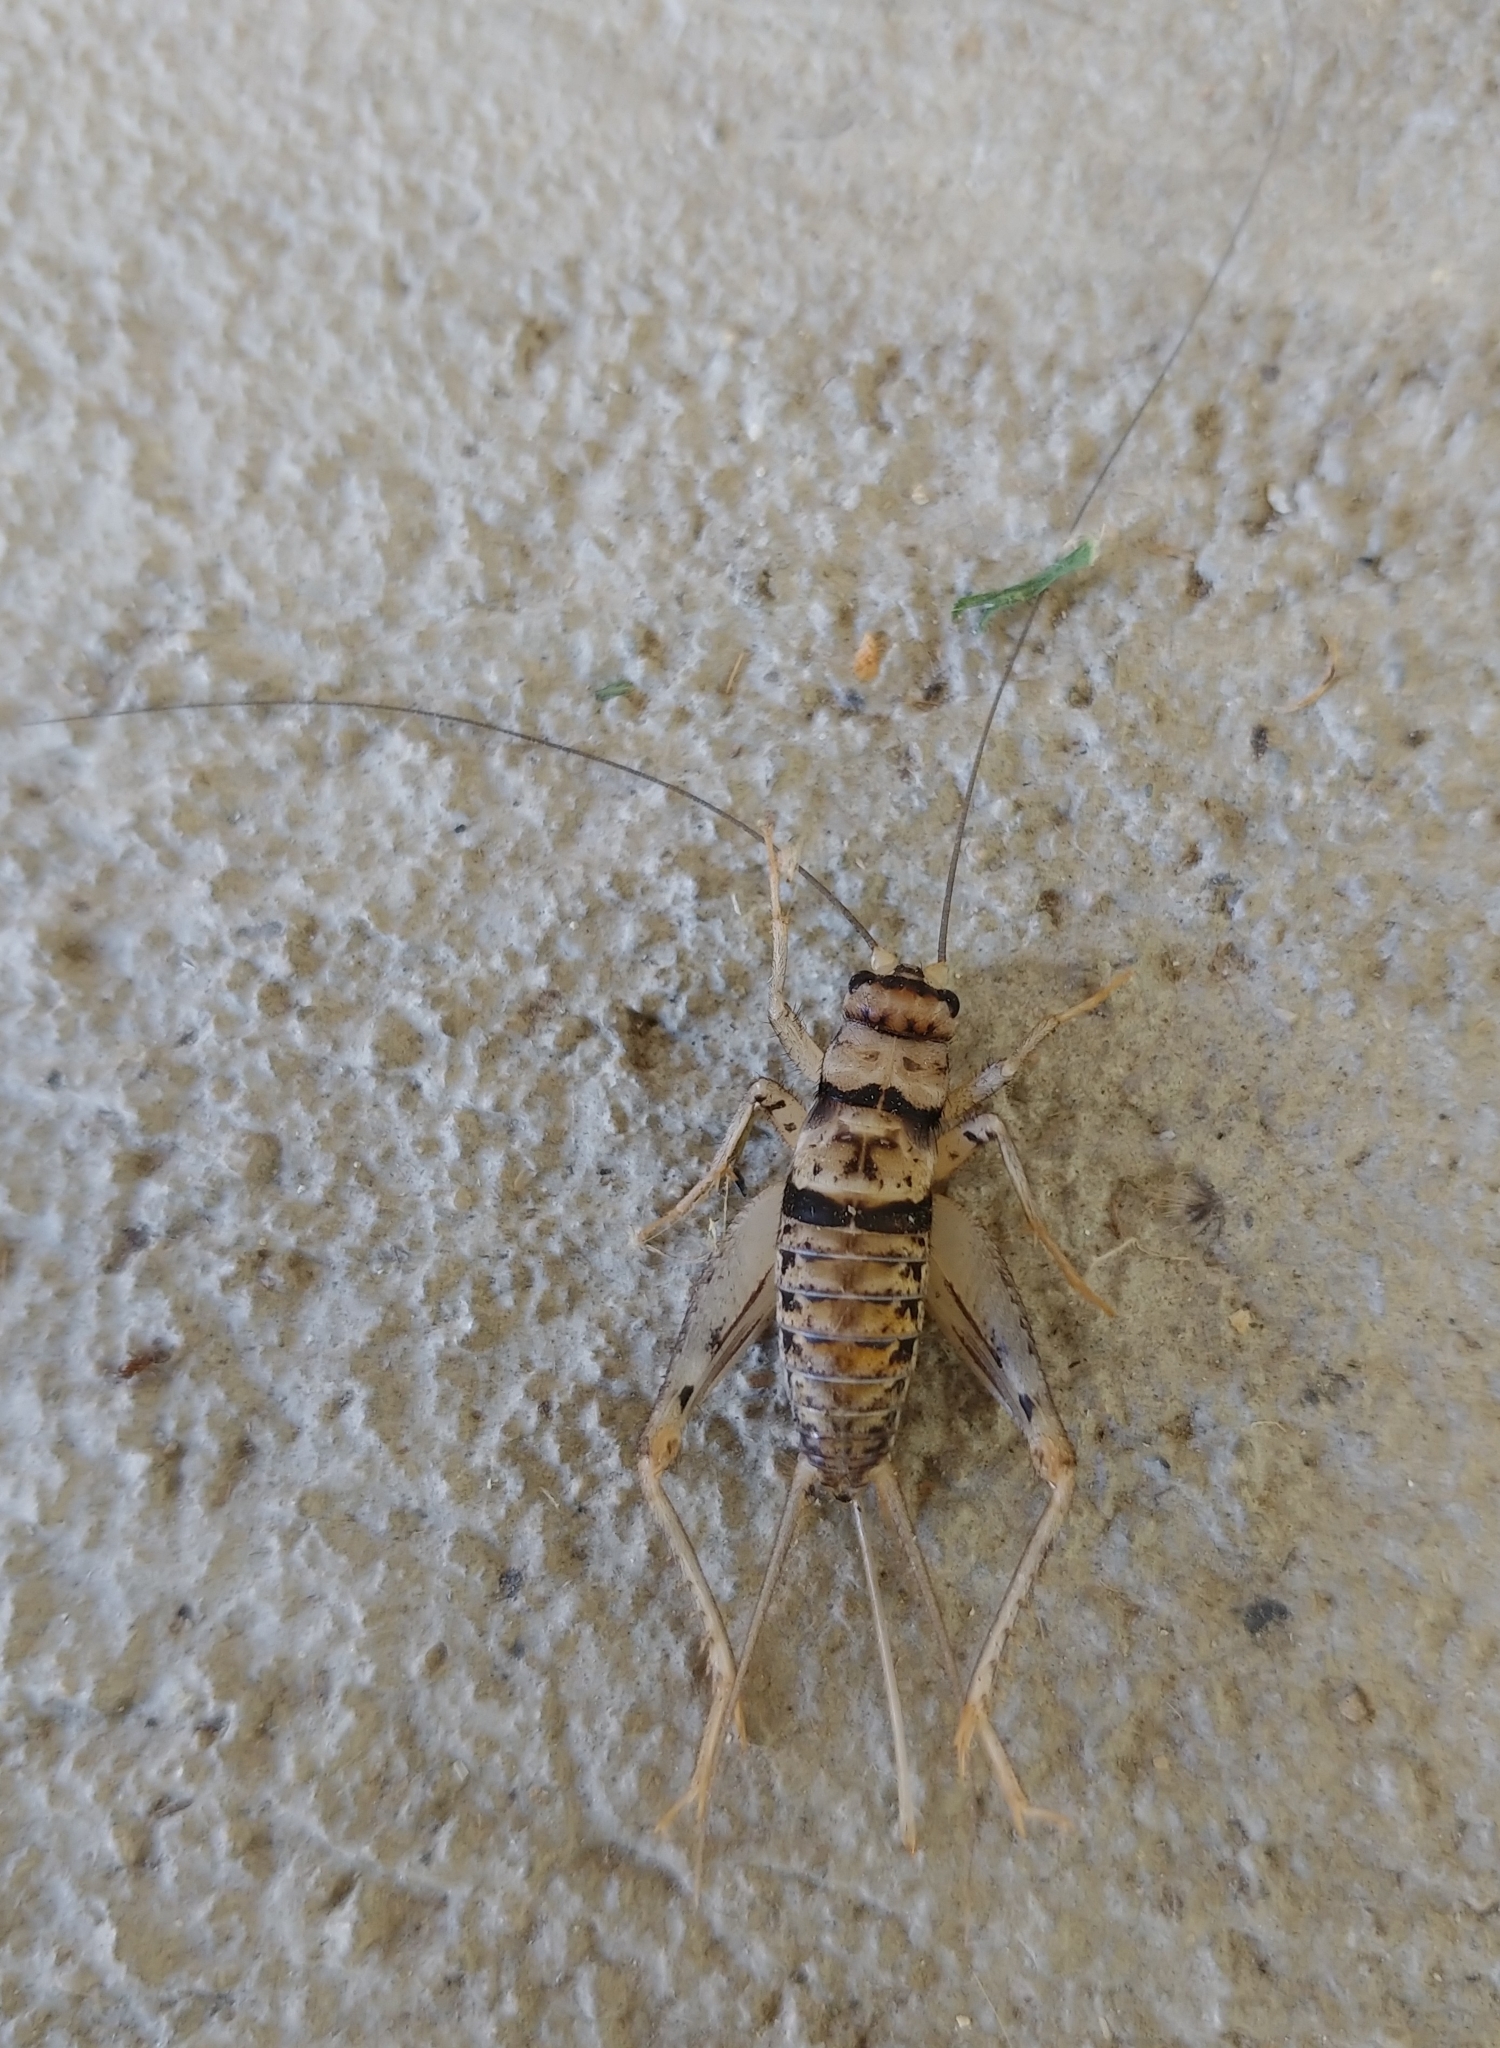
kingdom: Animalia
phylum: Arthropoda
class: Insecta
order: Orthoptera
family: Gryllidae
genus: Gryllodes
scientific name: Gryllodes sigillatus
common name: Tropical house cricket
